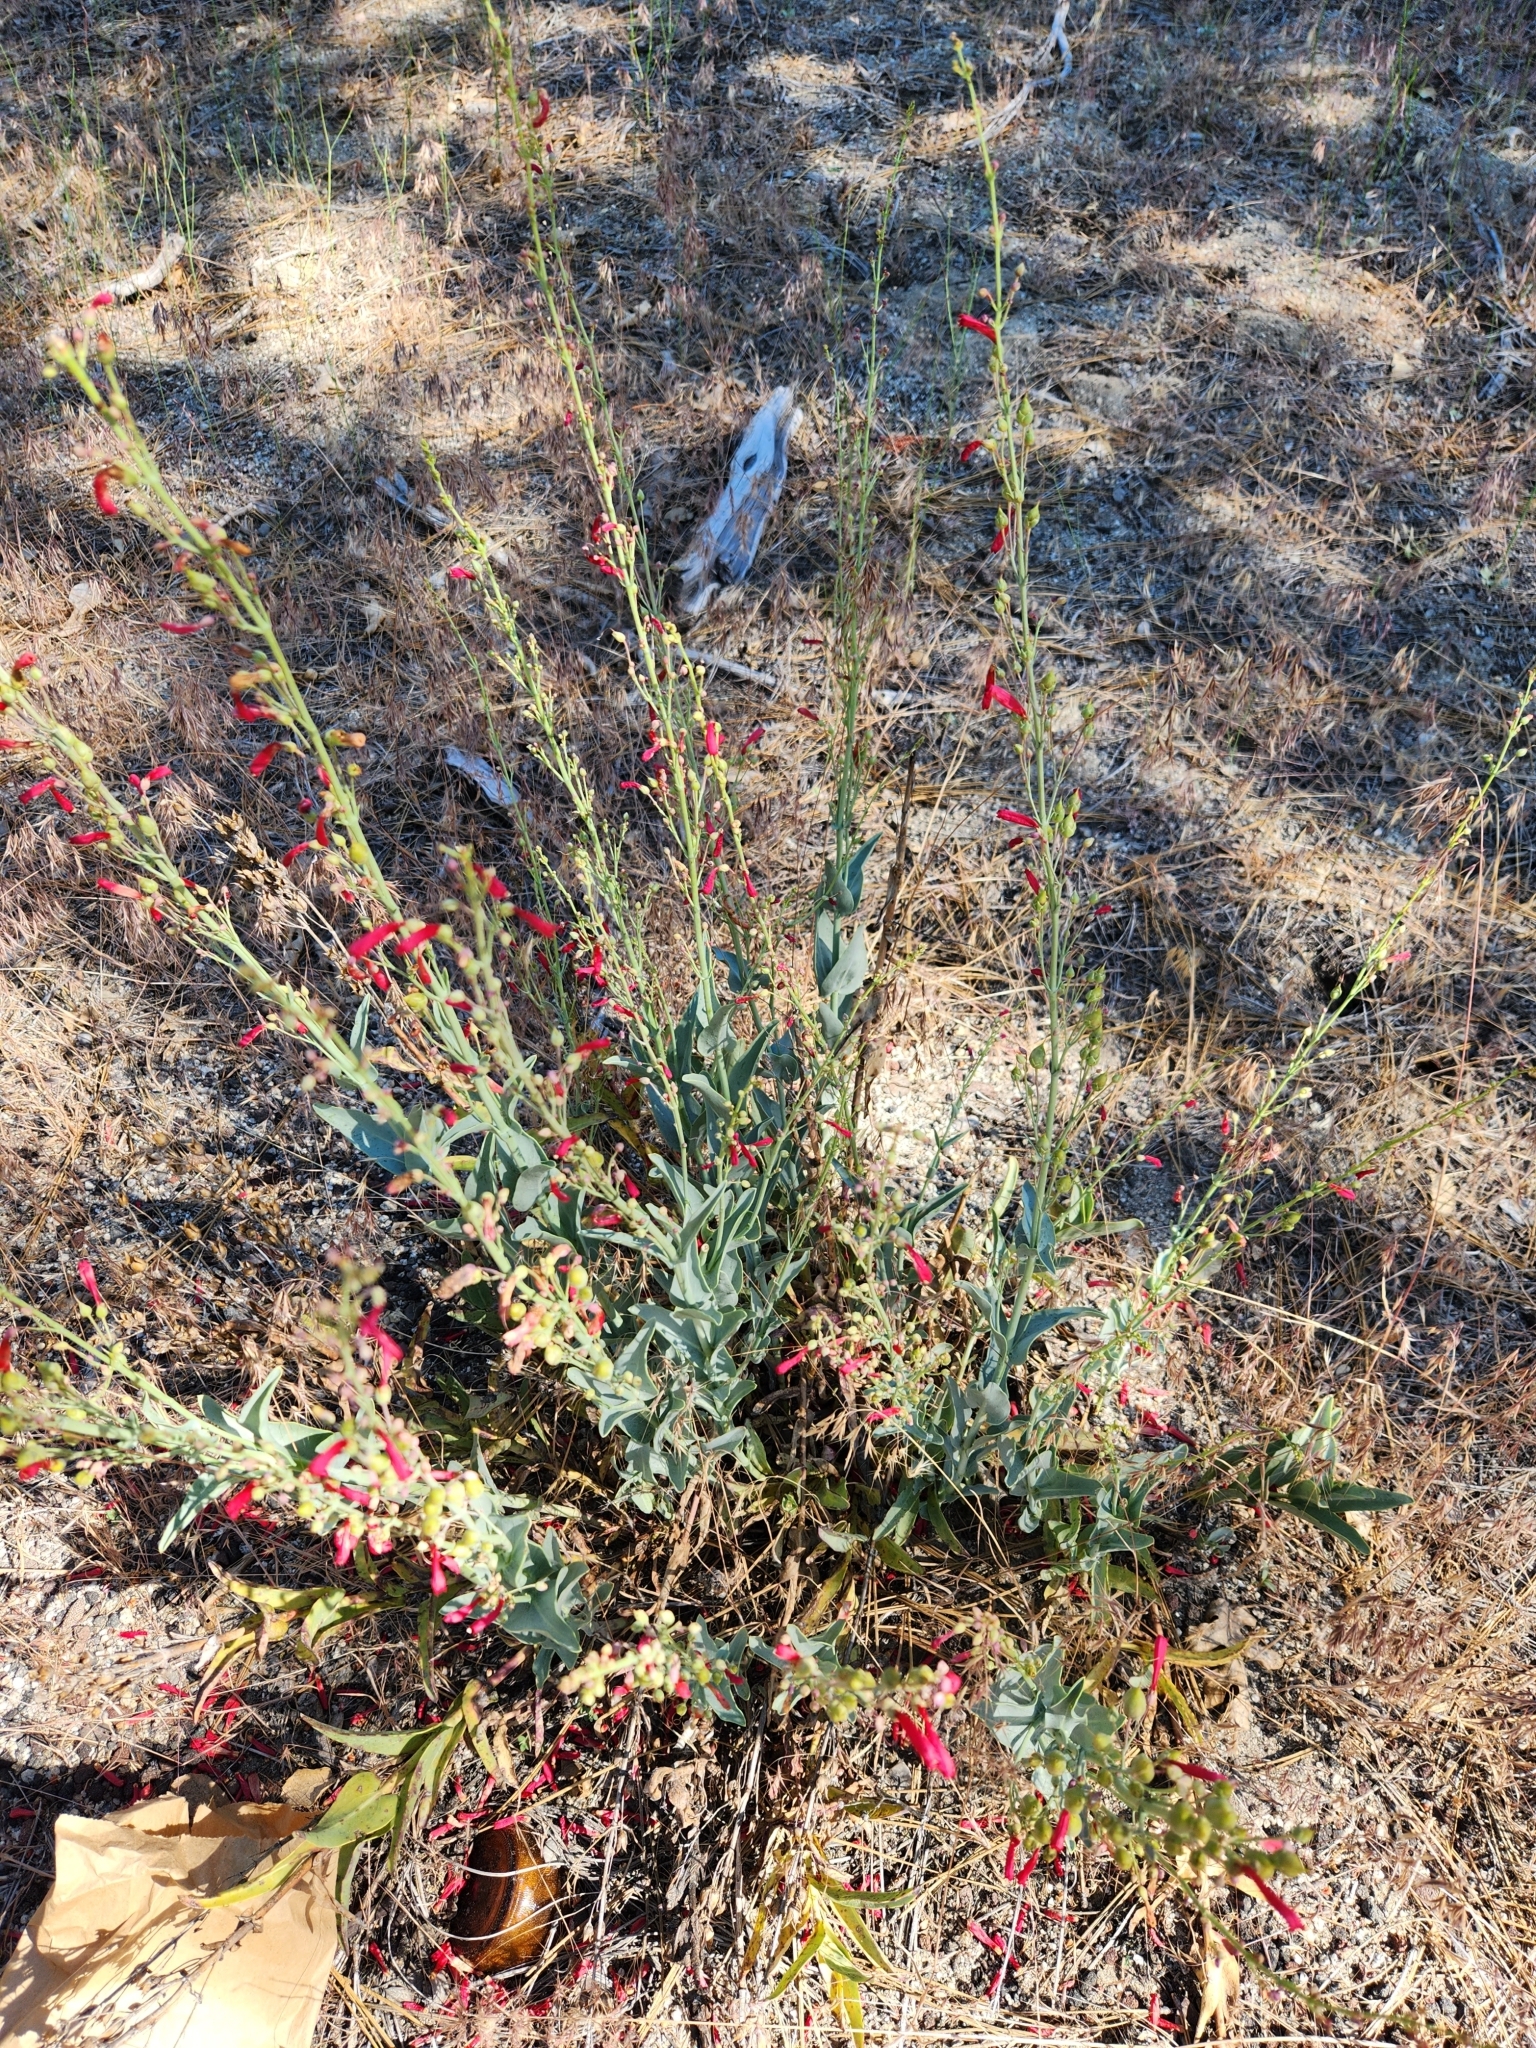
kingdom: Plantae
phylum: Tracheophyta
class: Magnoliopsida
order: Lamiales
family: Plantaginaceae
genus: Penstemon
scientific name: Penstemon centranthifolius
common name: Scarlet bugler
